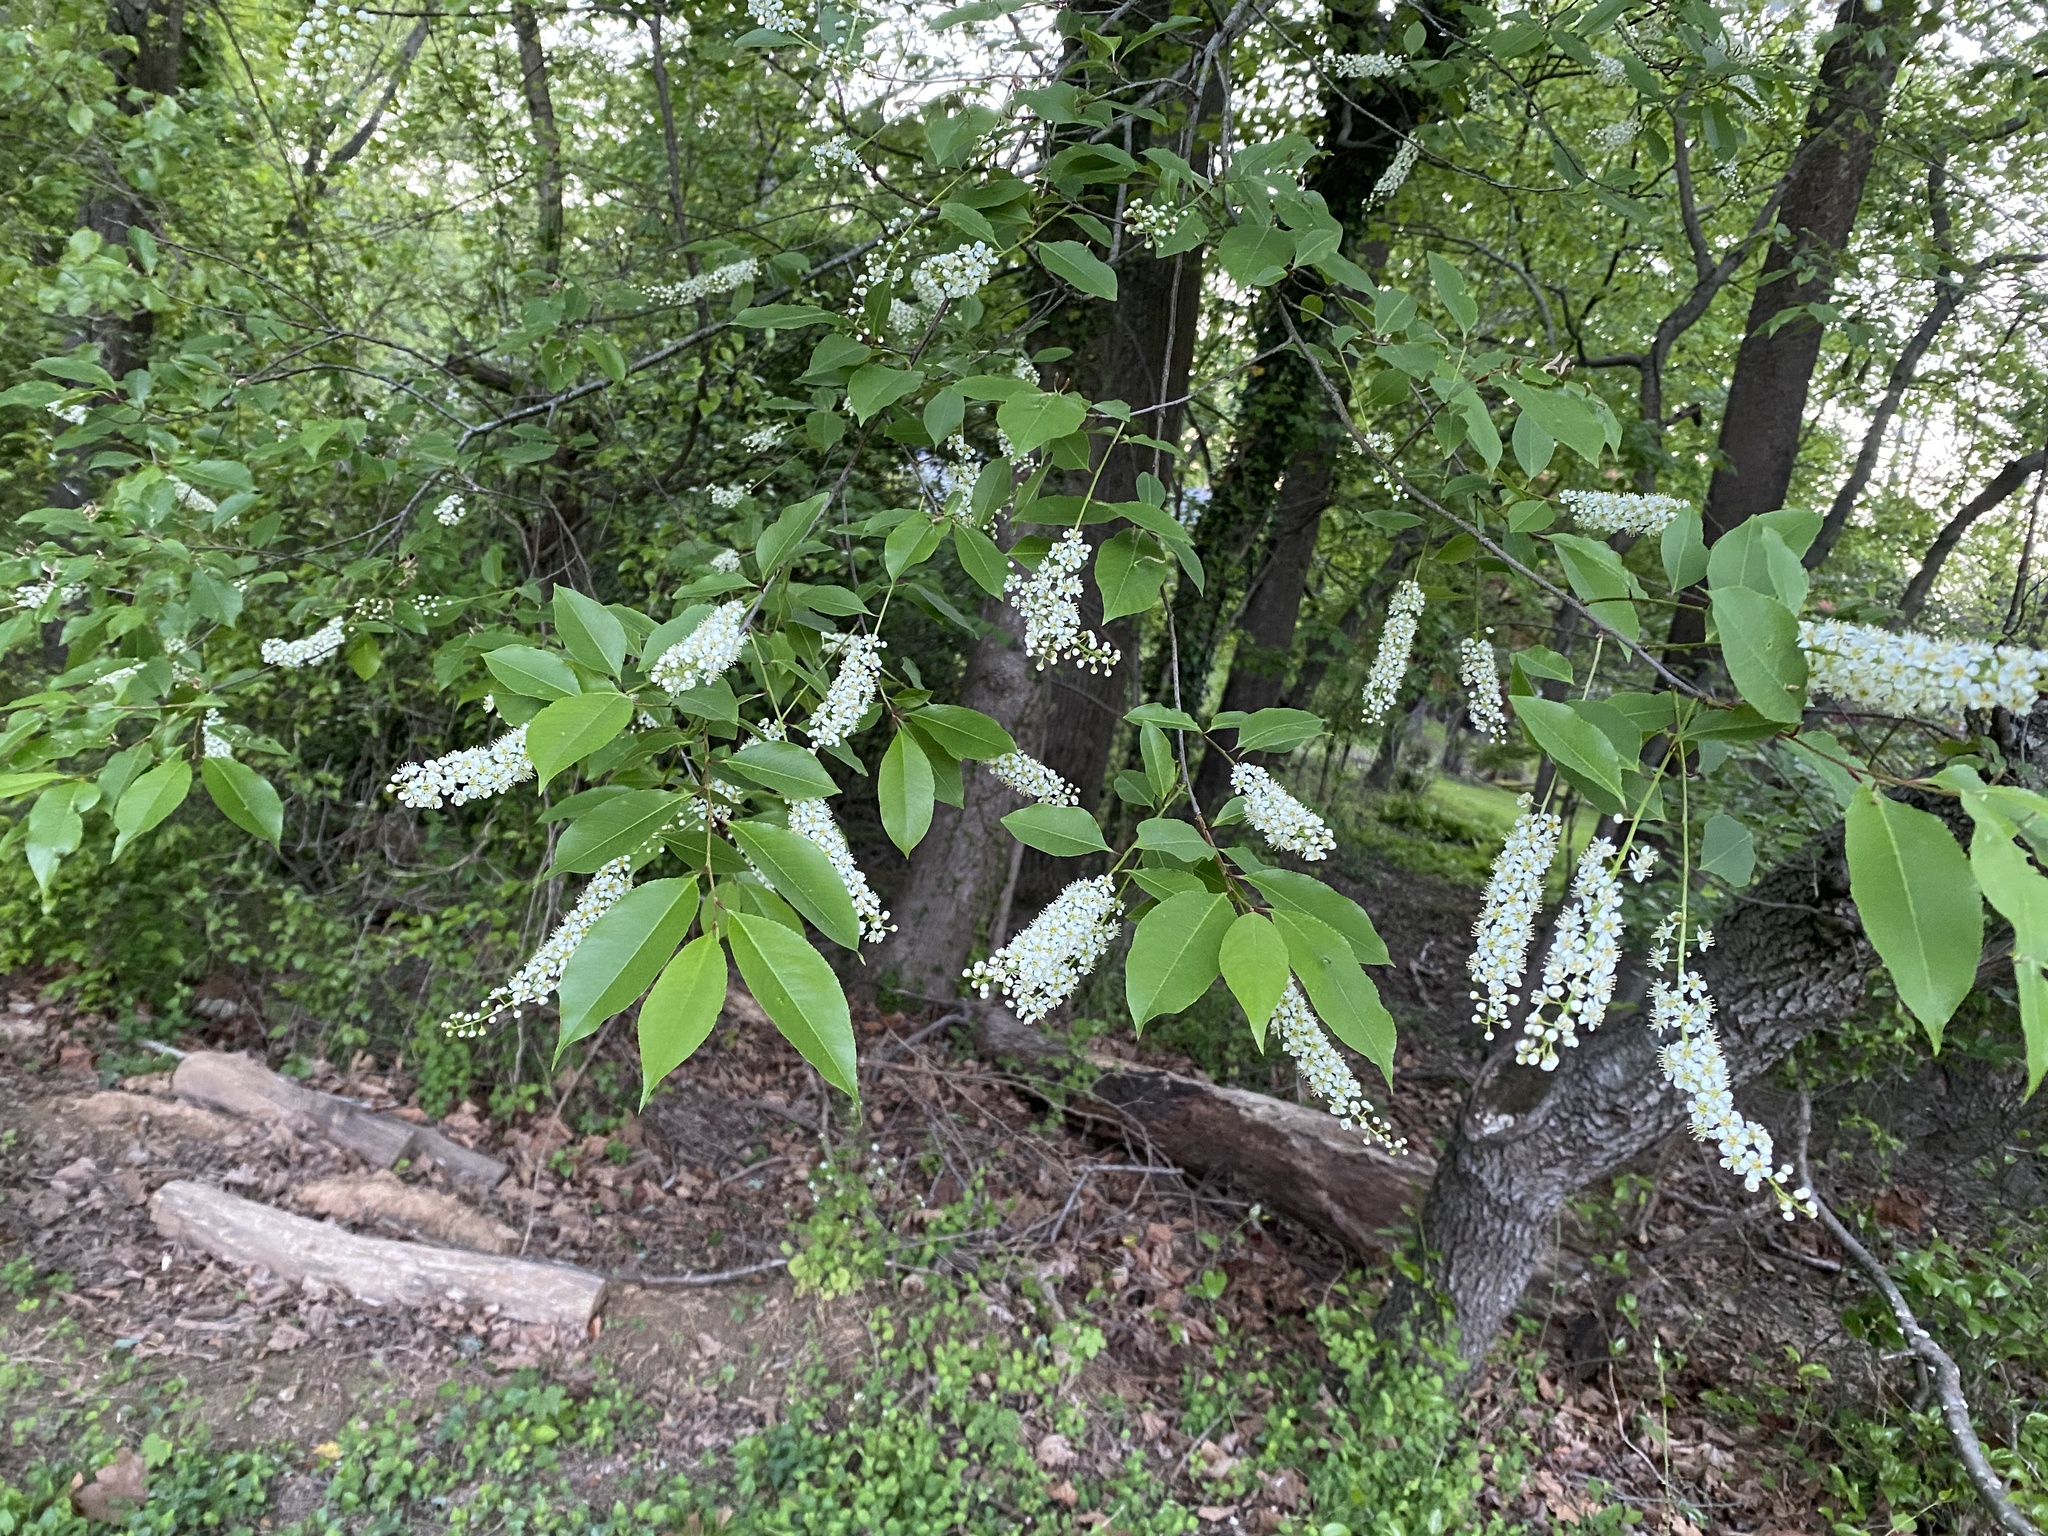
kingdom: Plantae
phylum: Tracheophyta
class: Magnoliopsida
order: Rosales
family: Rosaceae
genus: Prunus
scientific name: Prunus serotina
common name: Black cherry
